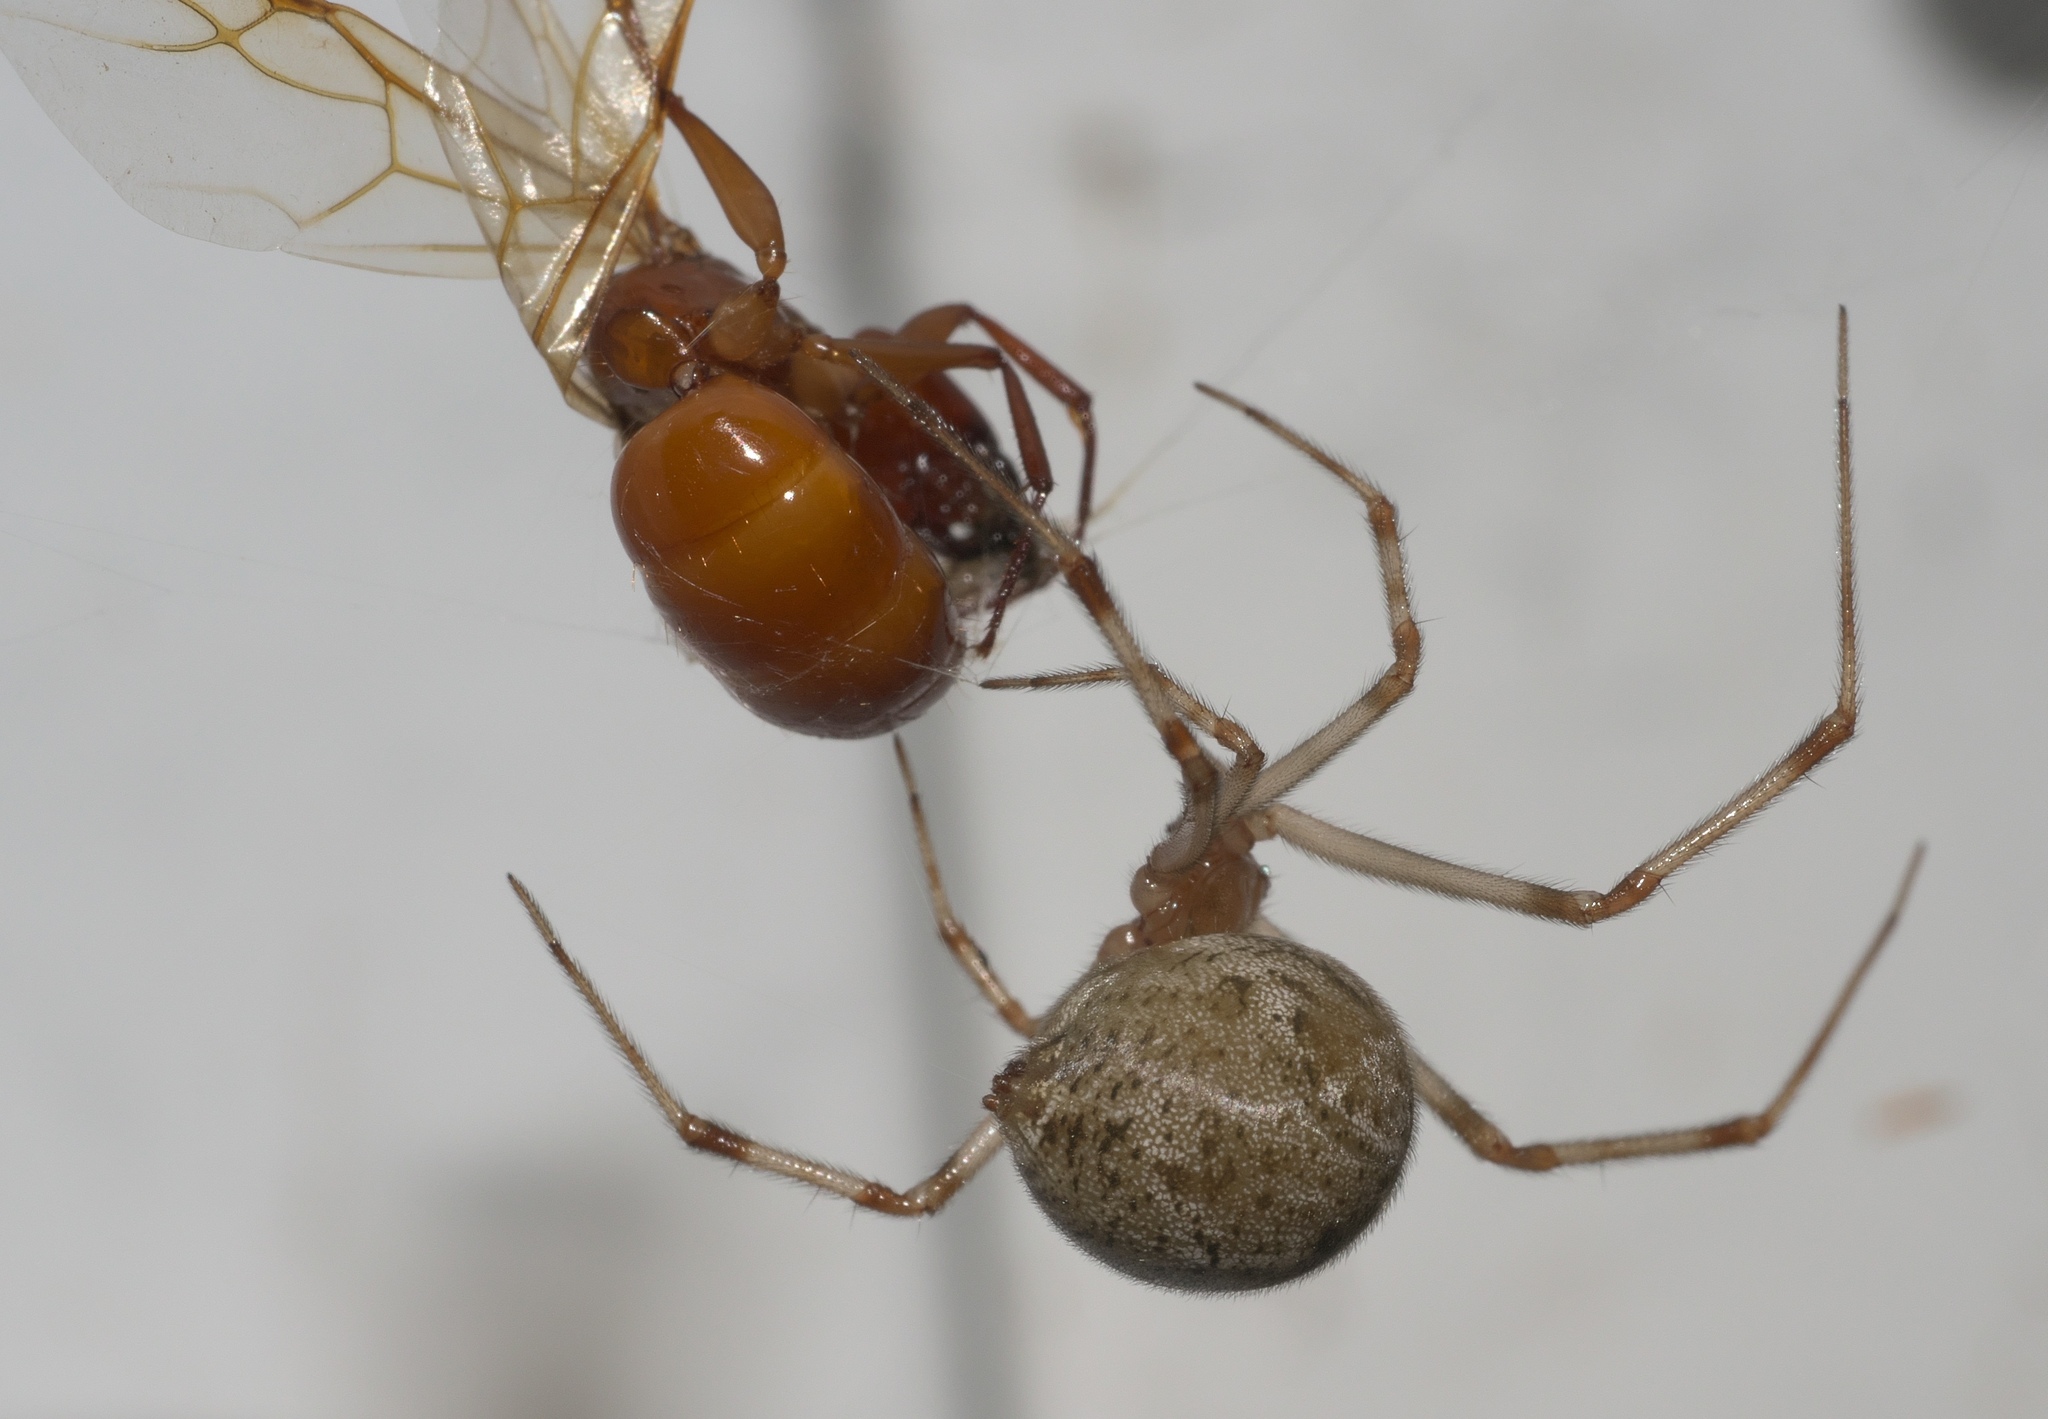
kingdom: Animalia
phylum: Arthropoda
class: Arachnida
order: Araneae
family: Theridiidae
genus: Parasteatoda
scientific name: Parasteatoda tepidariorum
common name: Common house spider
